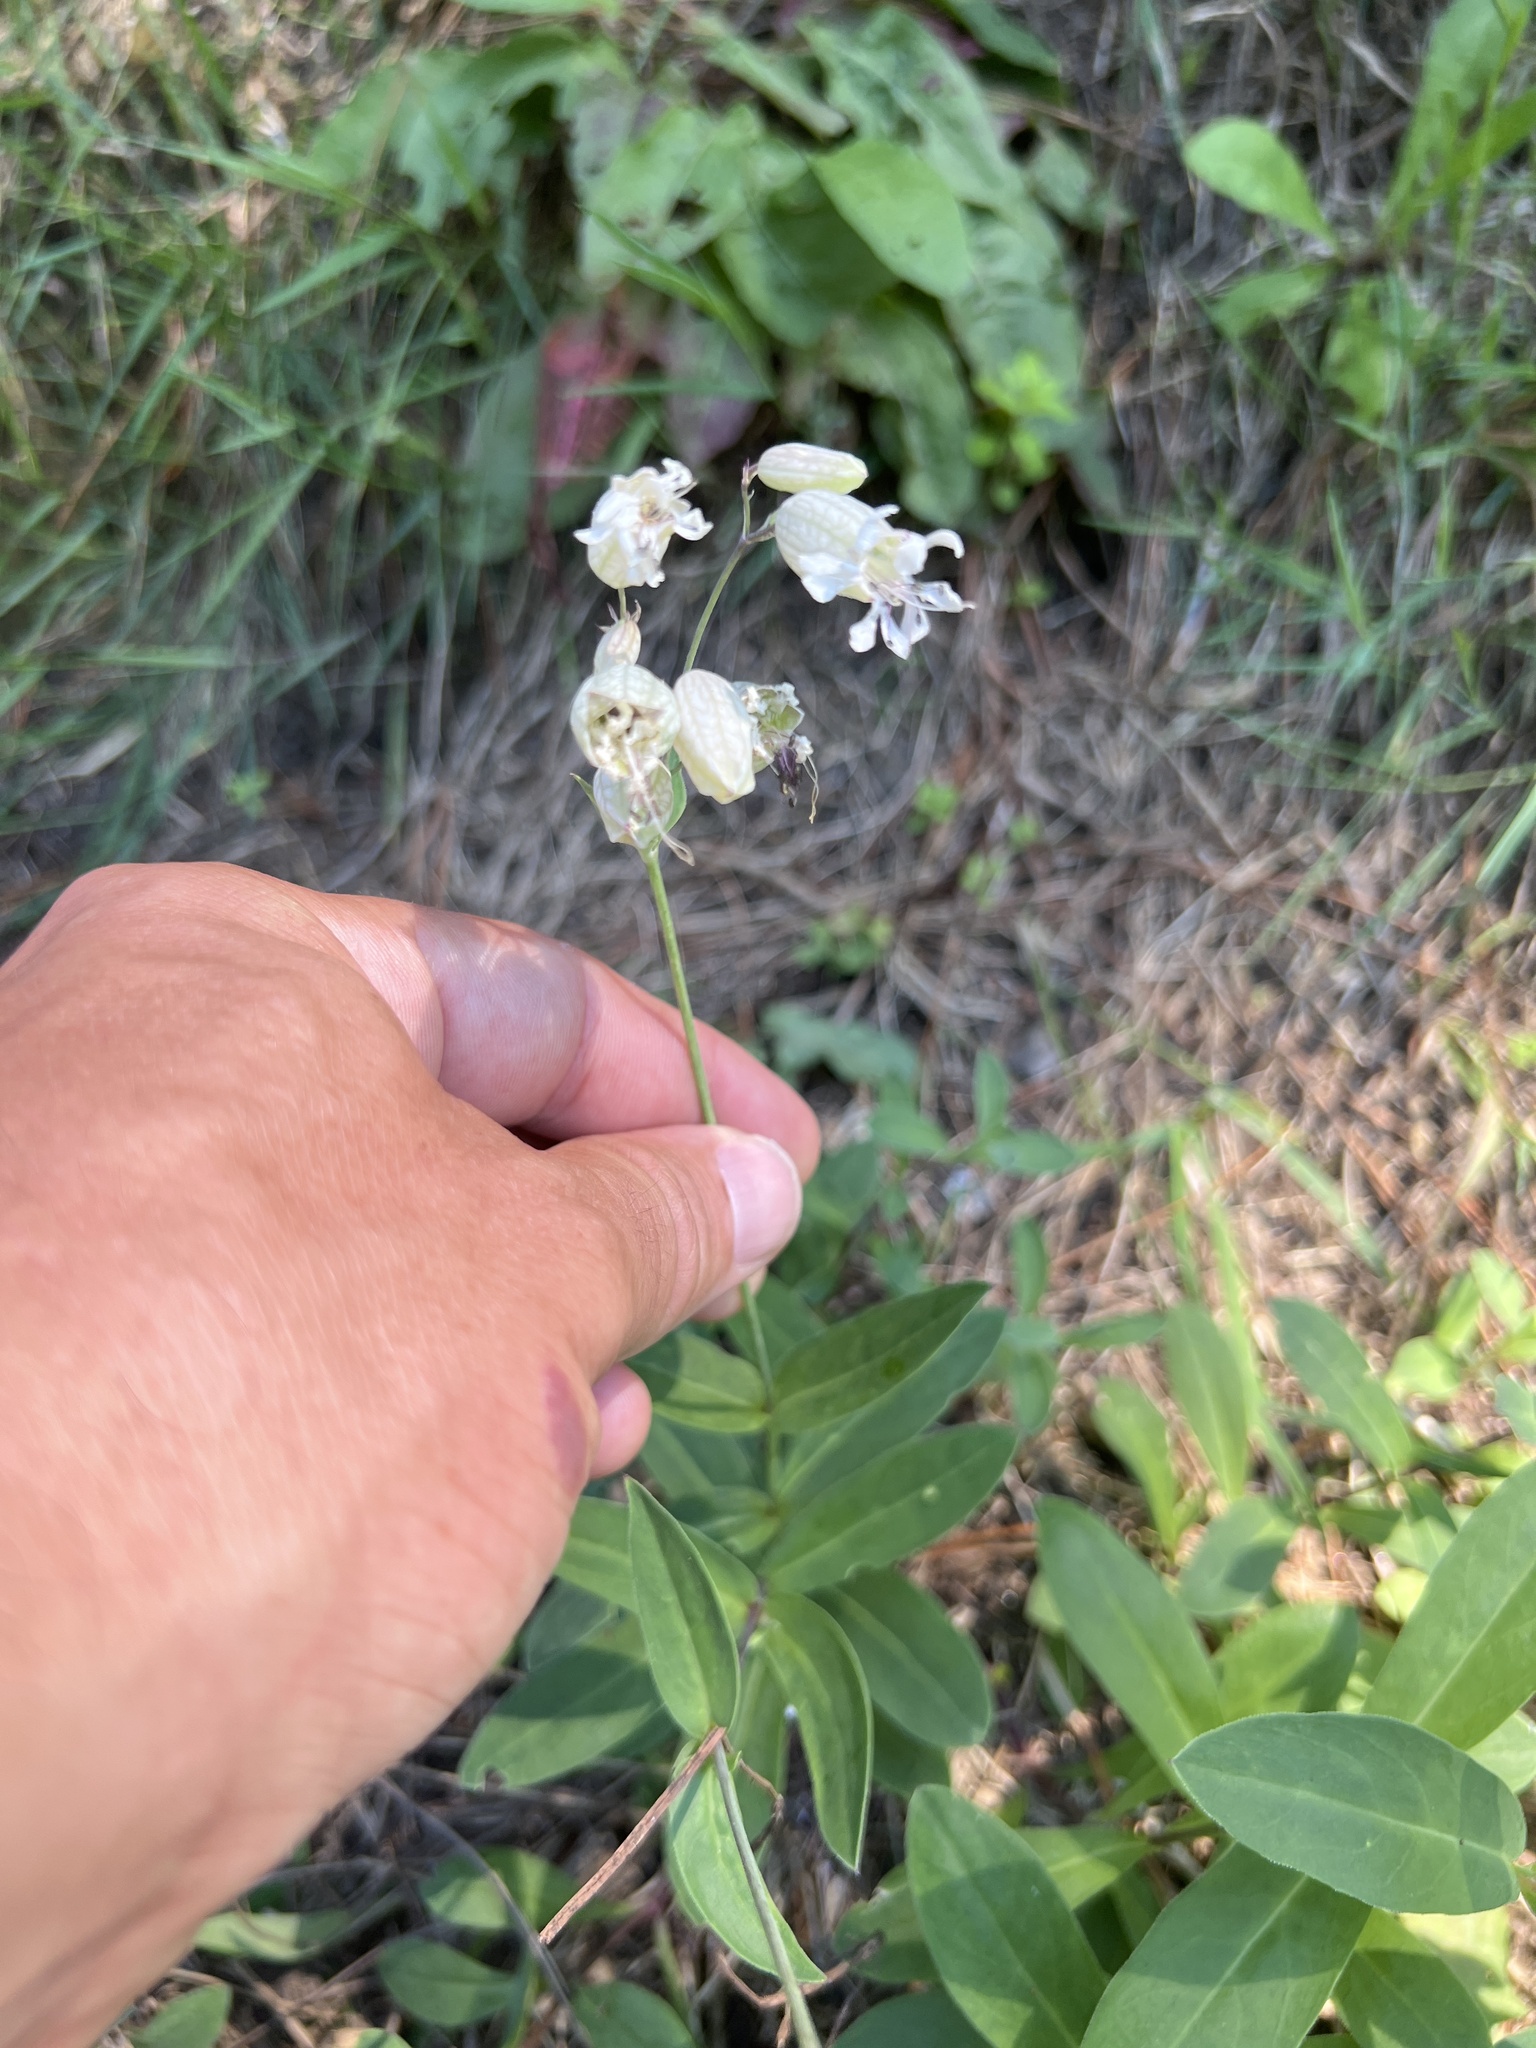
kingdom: Plantae
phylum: Tracheophyta
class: Magnoliopsida
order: Caryophyllales
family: Caryophyllaceae
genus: Silene
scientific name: Silene vulgaris
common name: Bladder campion
